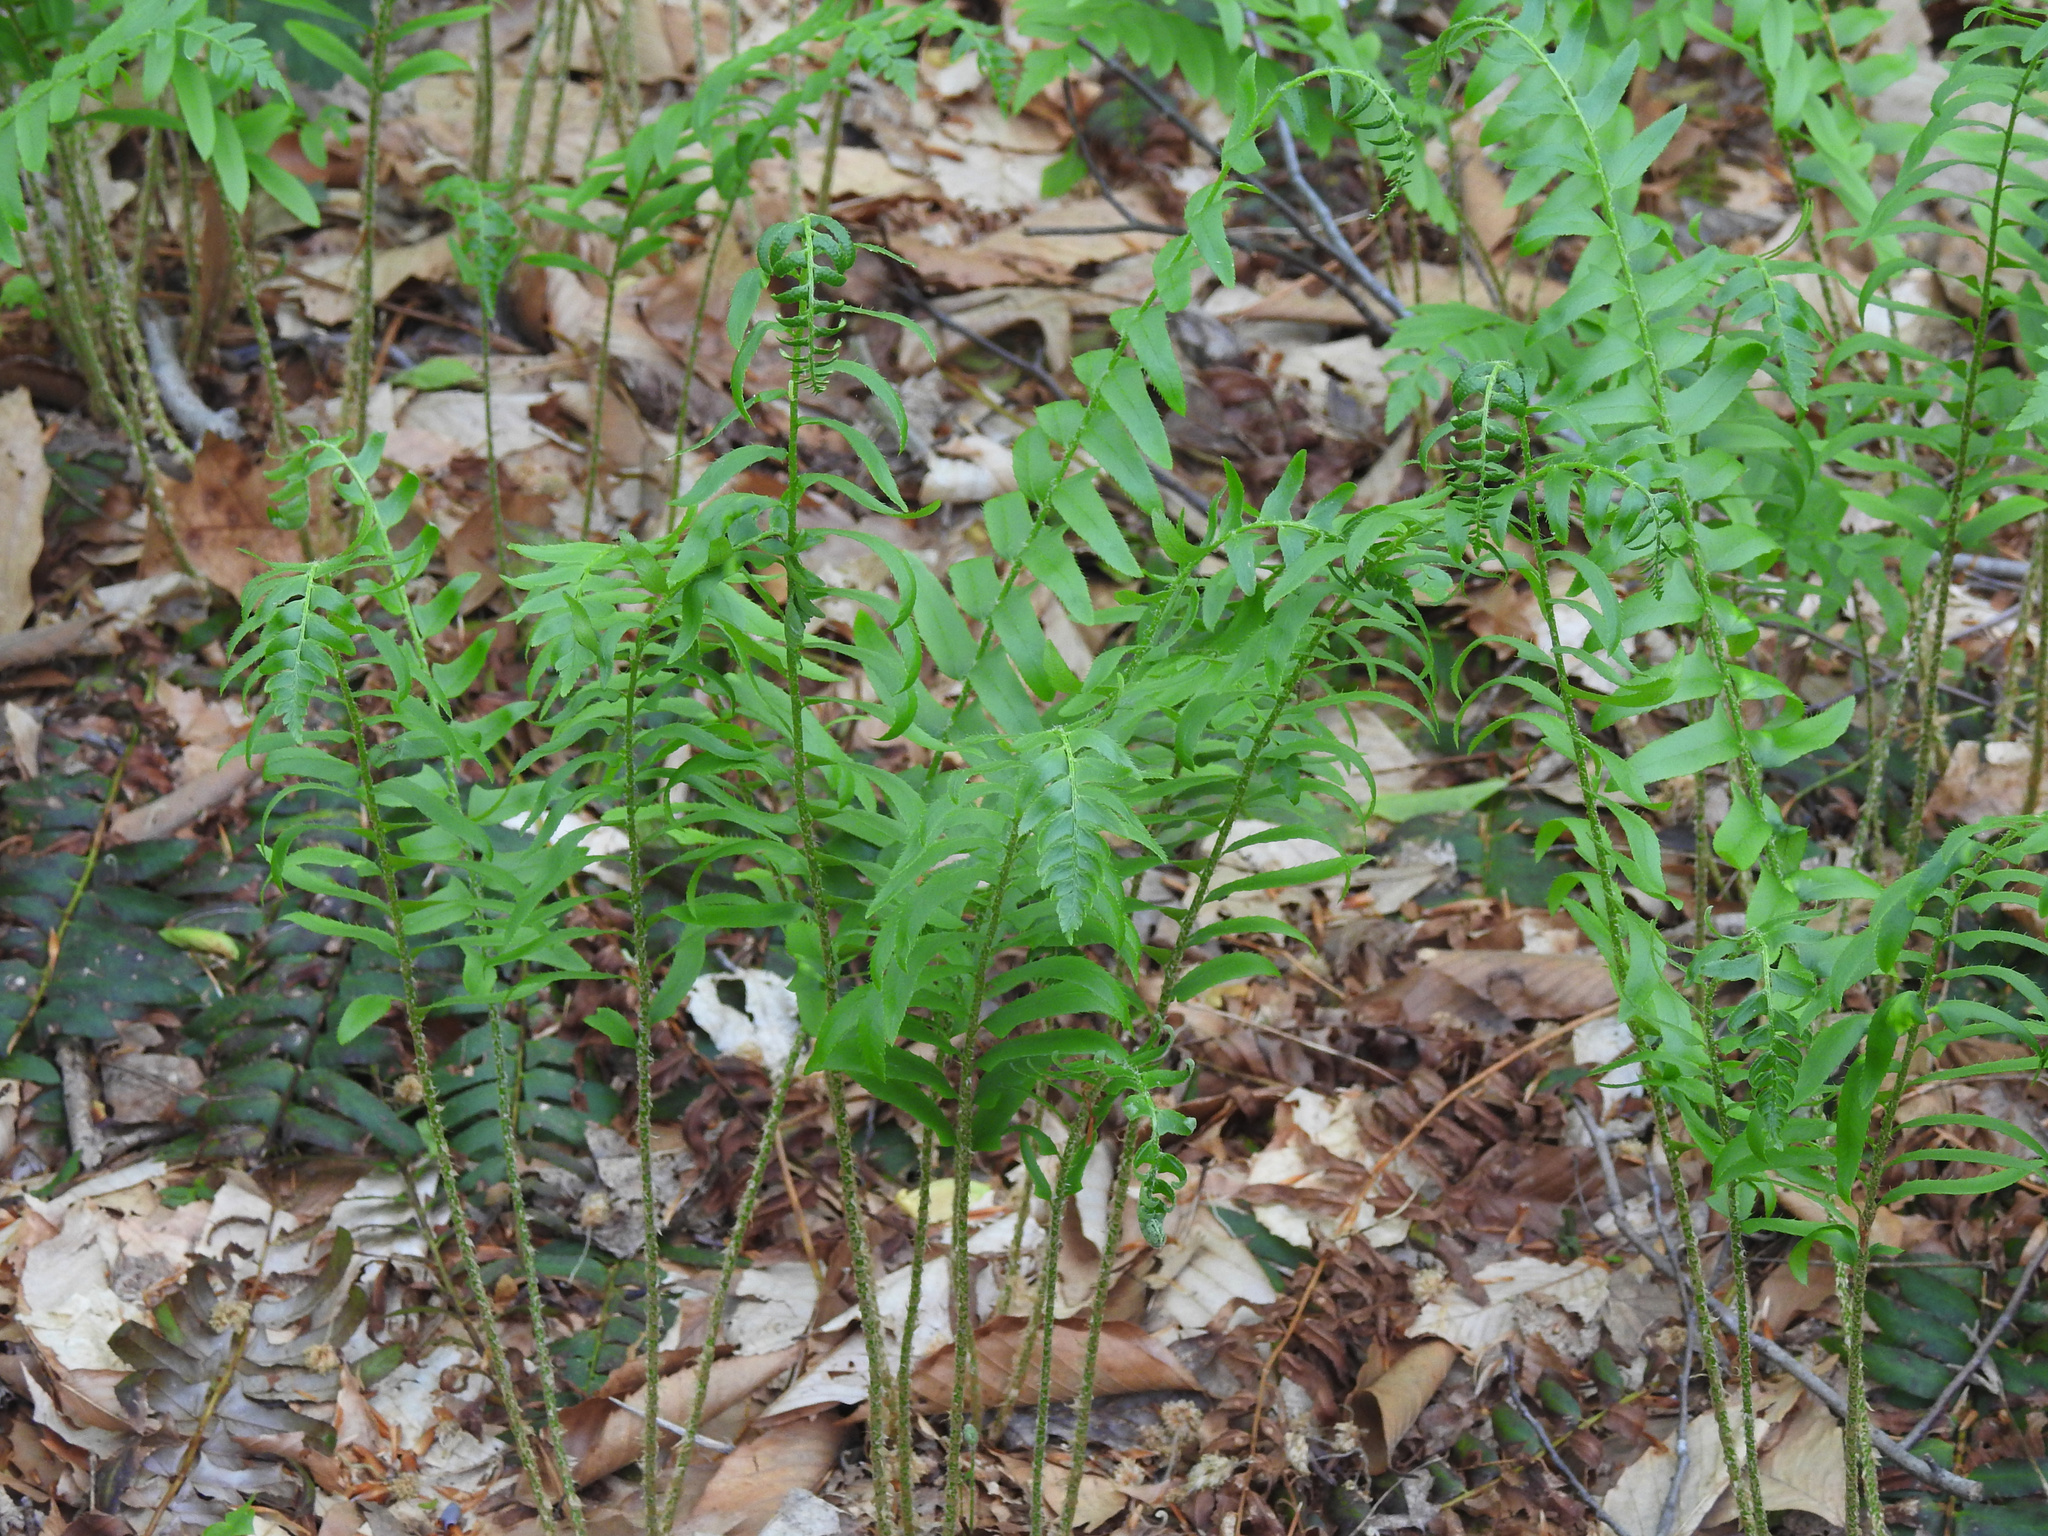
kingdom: Plantae
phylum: Tracheophyta
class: Polypodiopsida
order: Polypodiales
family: Dryopteridaceae
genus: Polystichum
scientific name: Polystichum acrostichoides
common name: Christmas fern
